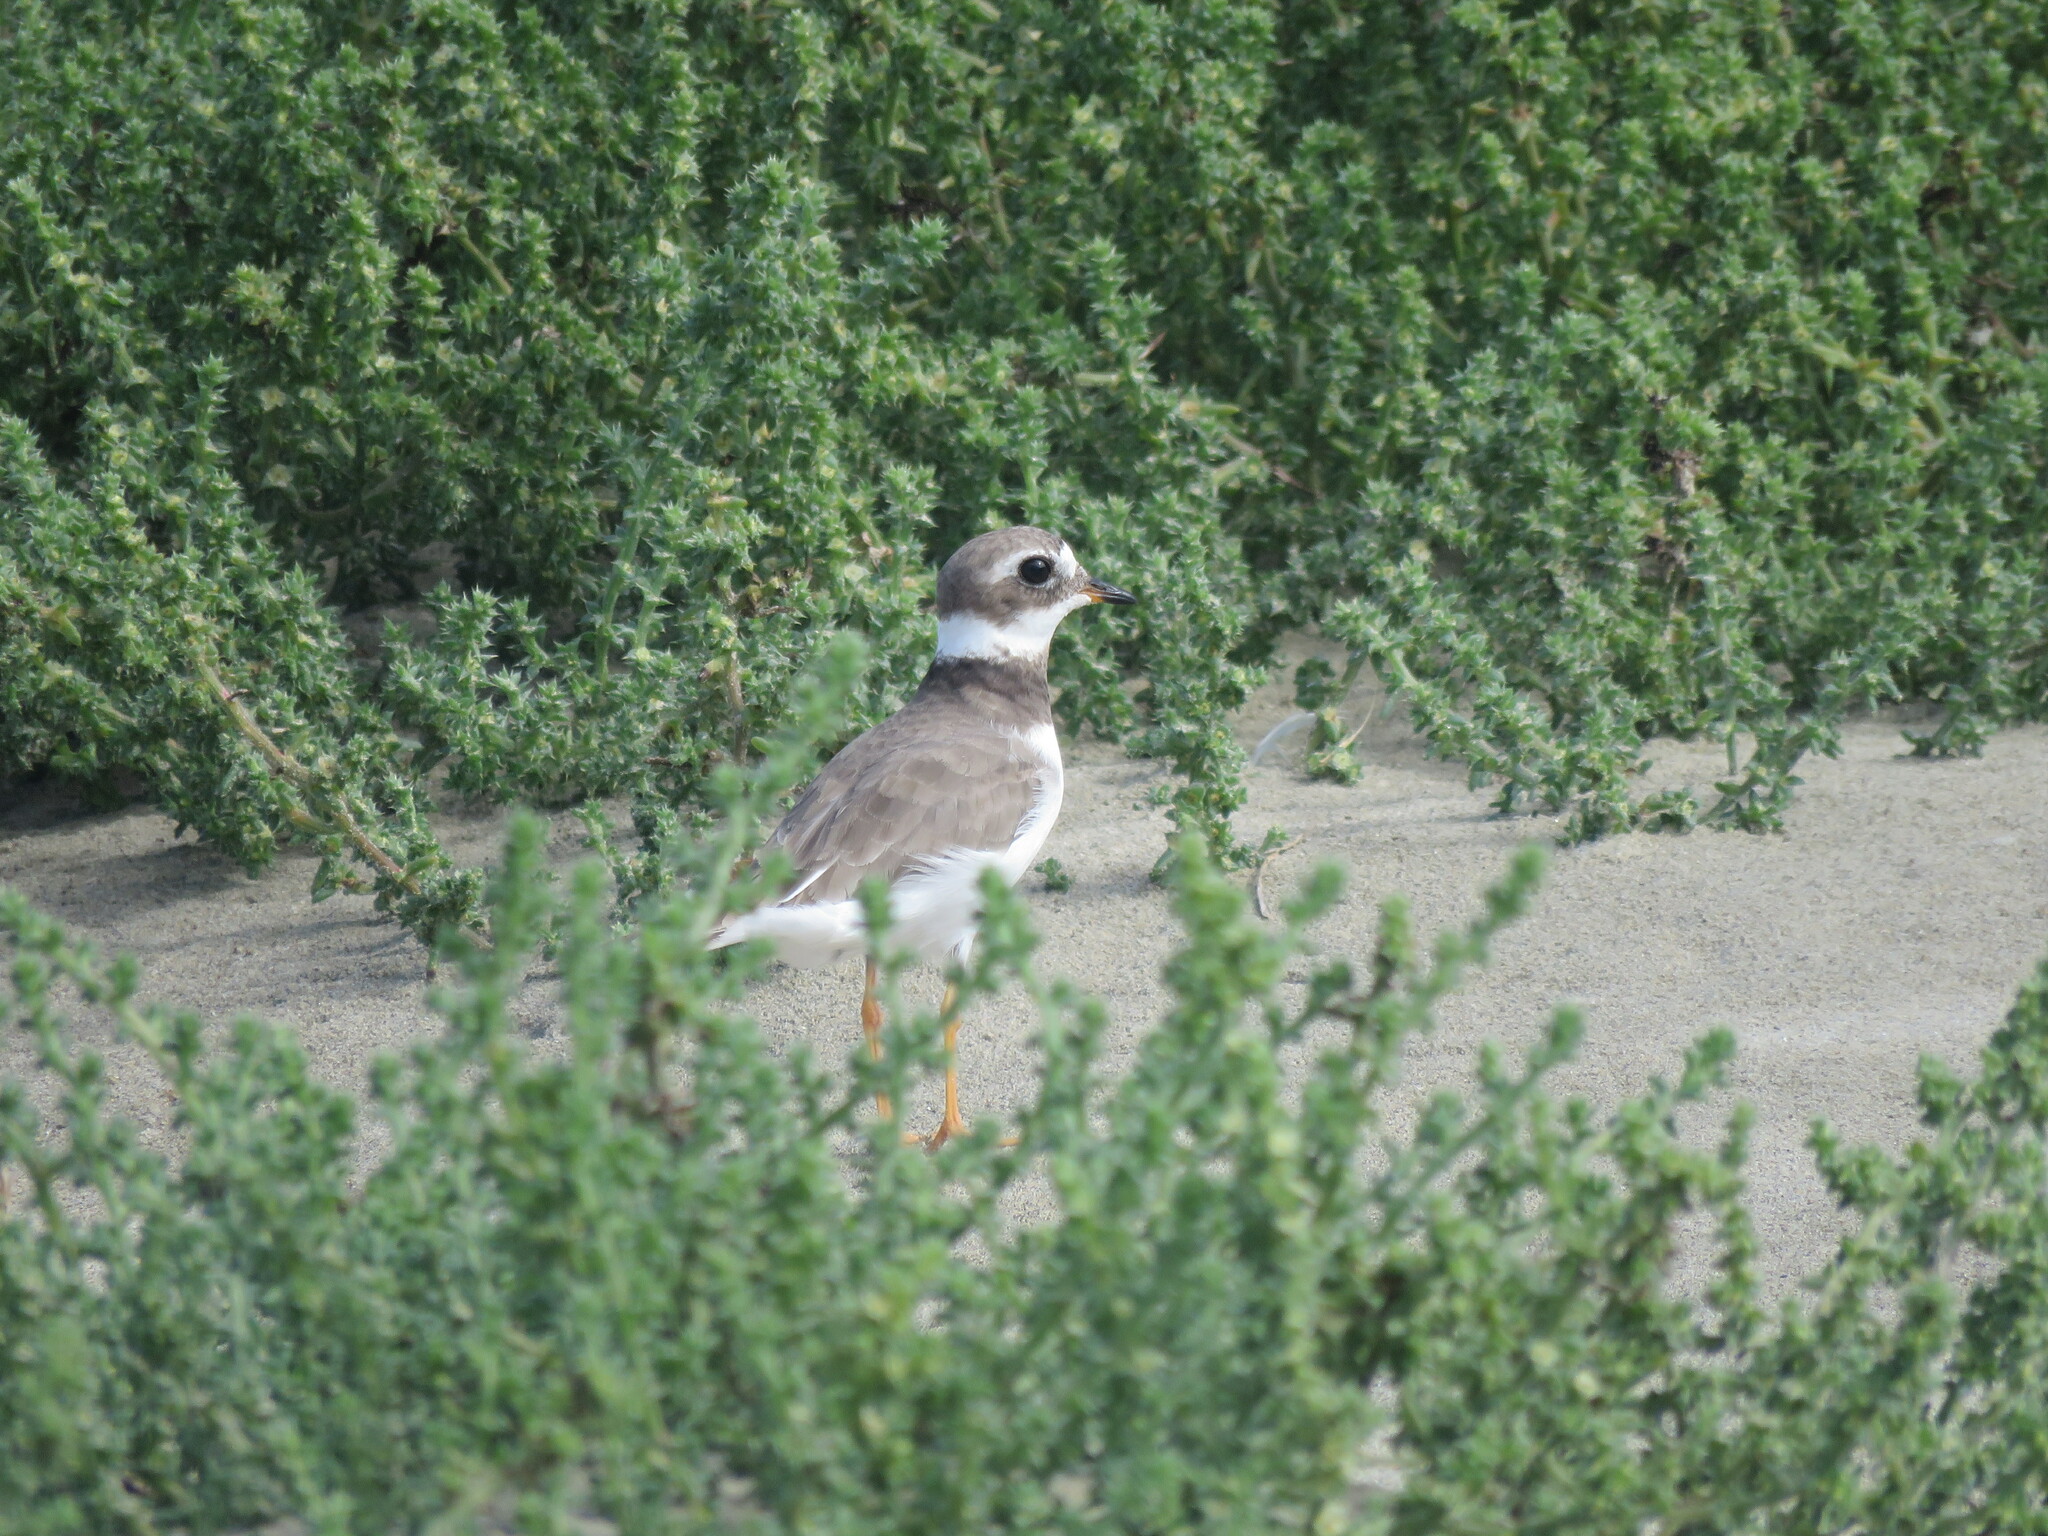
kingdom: Animalia
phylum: Chordata
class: Aves
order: Charadriiformes
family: Charadriidae
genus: Charadrius
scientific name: Charadrius hiaticula
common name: Common ringed plover
